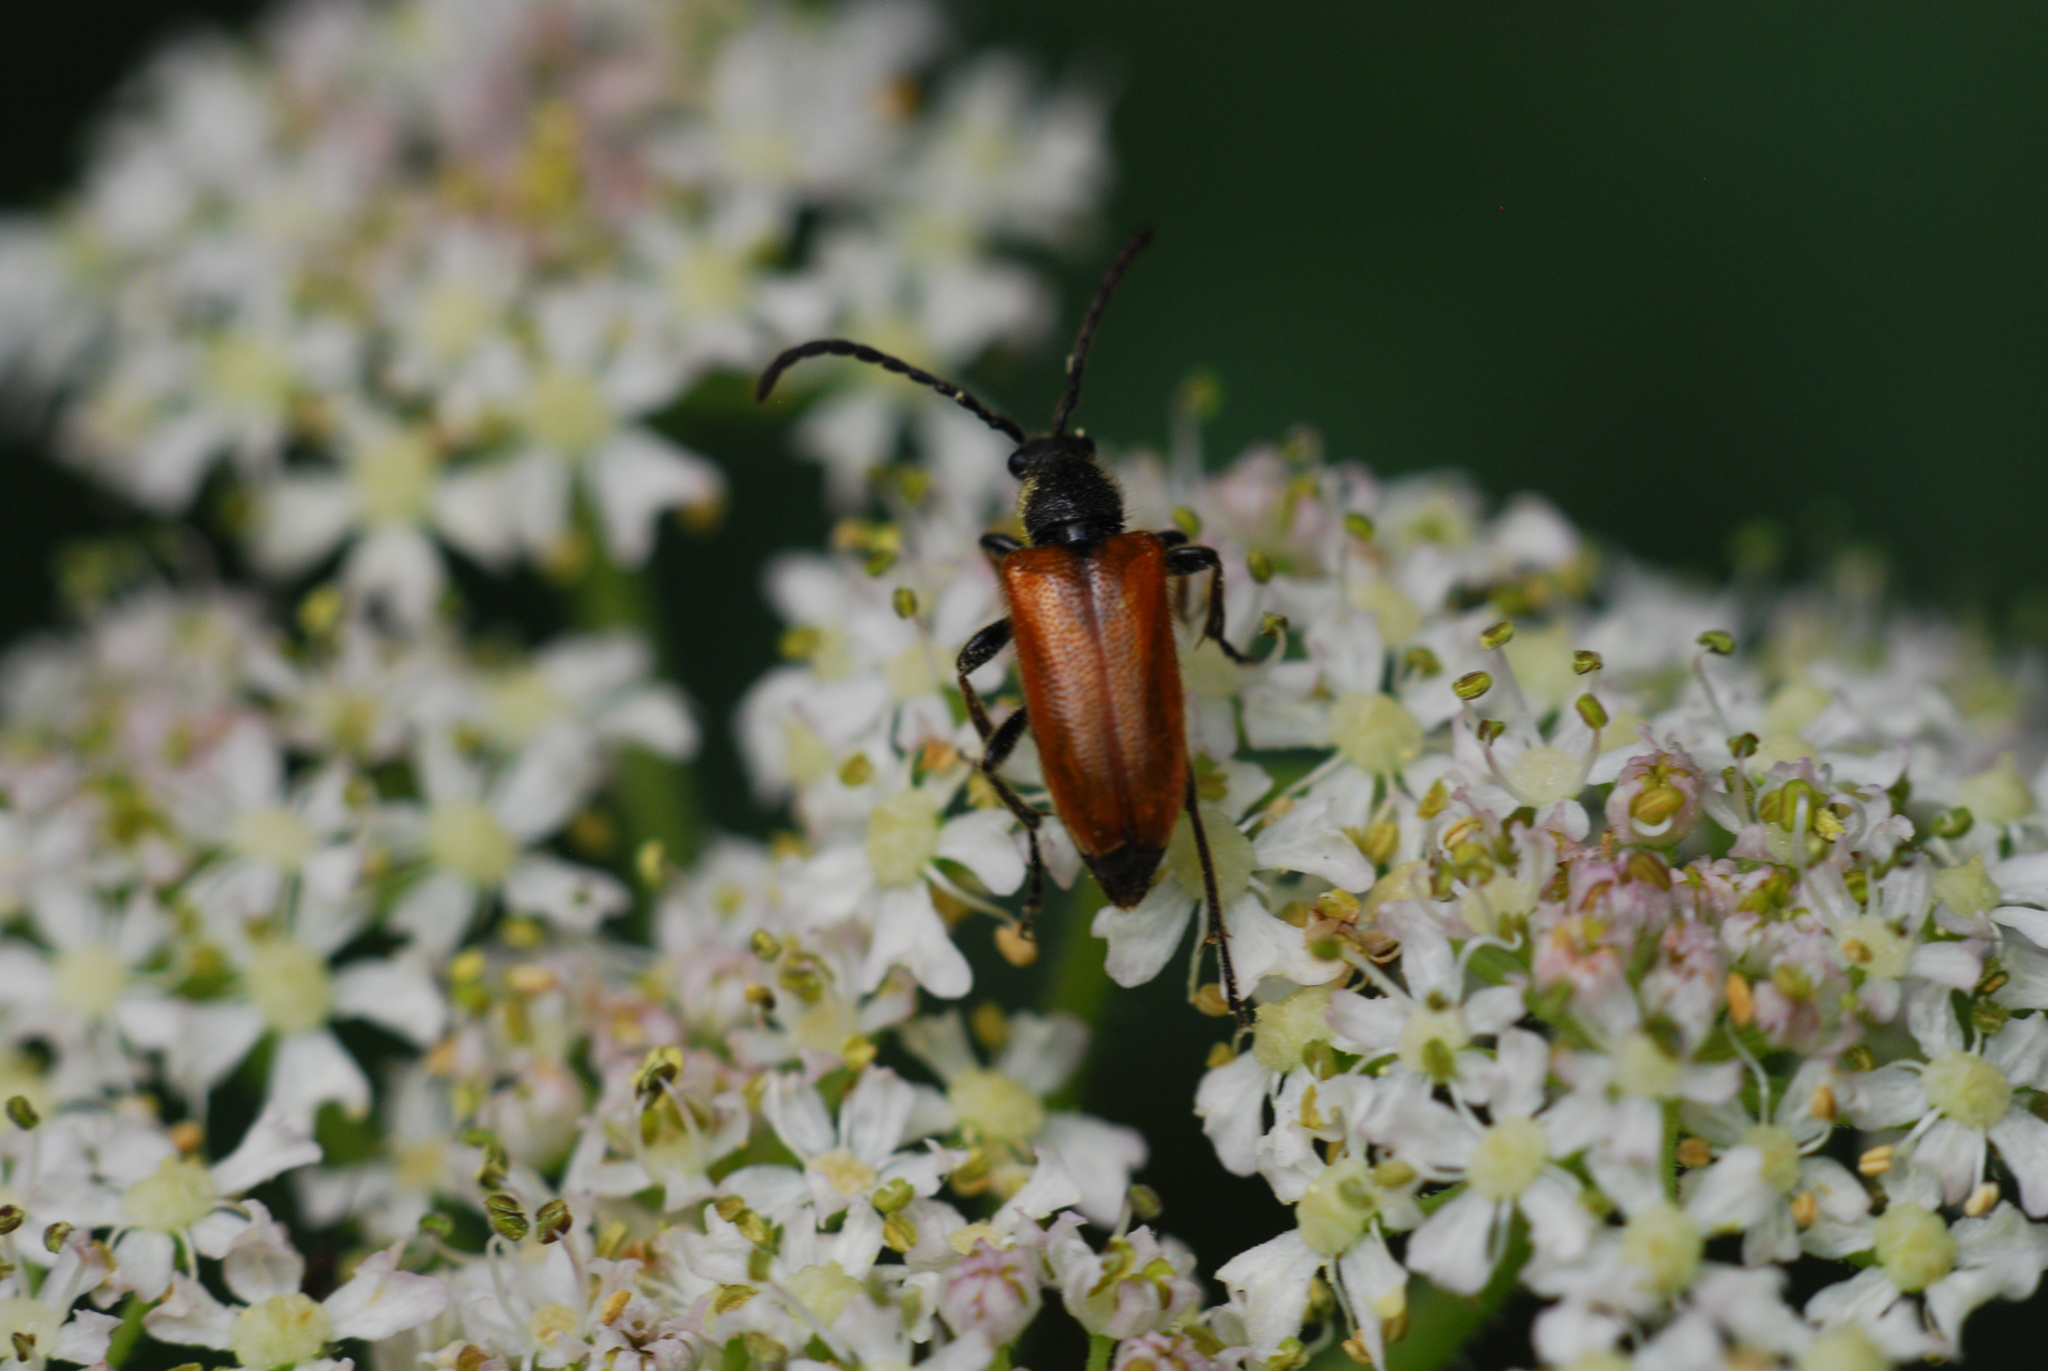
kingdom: Animalia
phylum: Arthropoda
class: Insecta
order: Coleoptera
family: Cerambycidae
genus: Pseudovadonia
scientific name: Pseudovadonia livida
